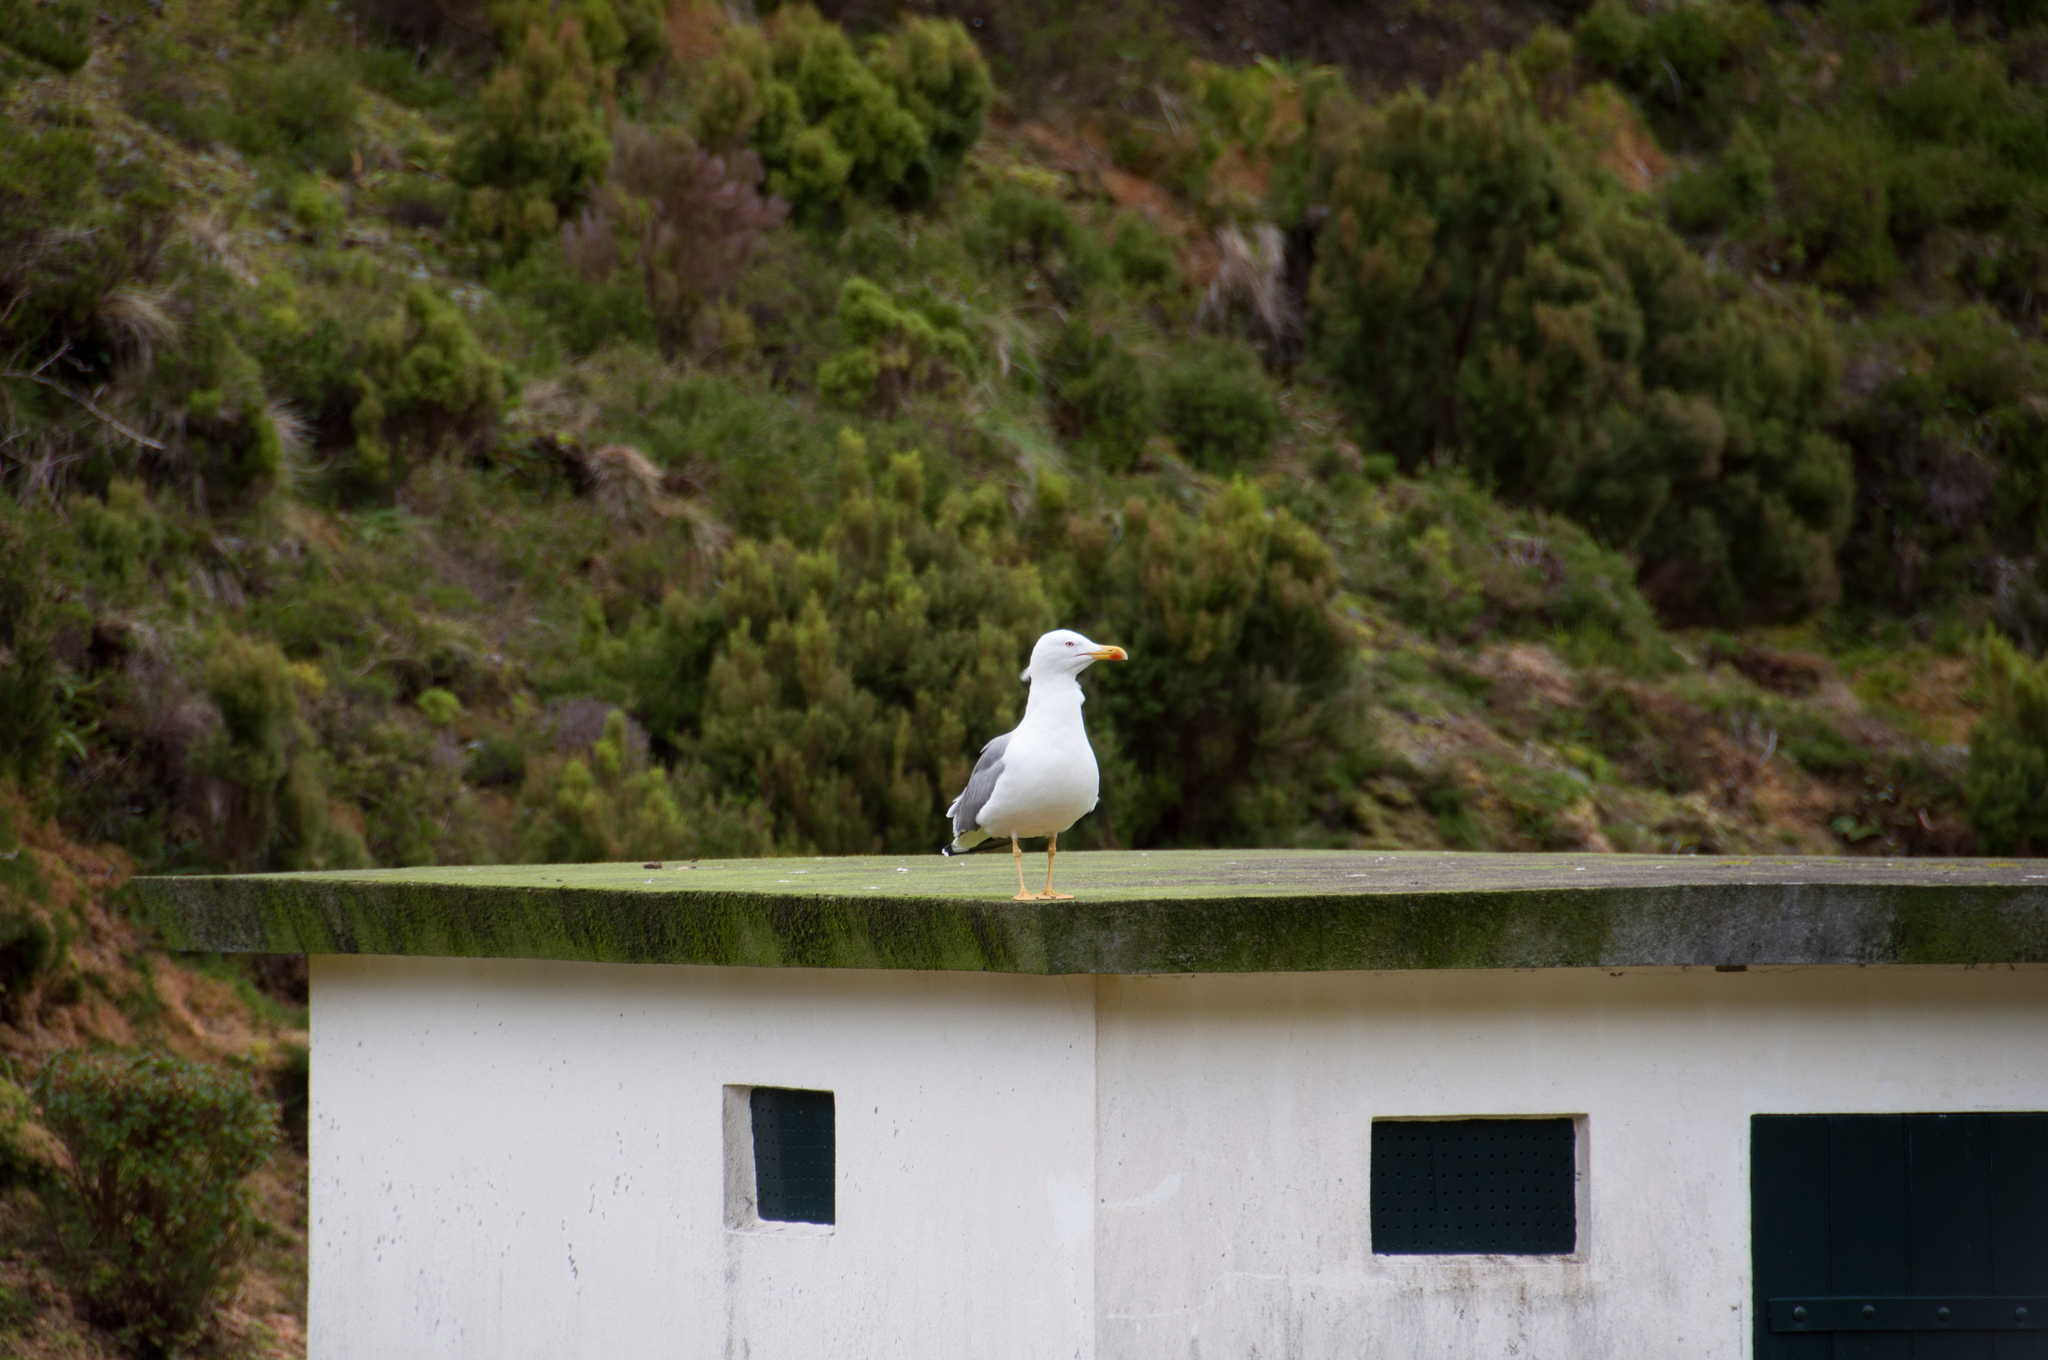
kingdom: Animalia
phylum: Chordata
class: Aves
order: Charadriiformes
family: Laridae
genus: Larus
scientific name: Larus michahellis
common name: Yellow-legged gull
